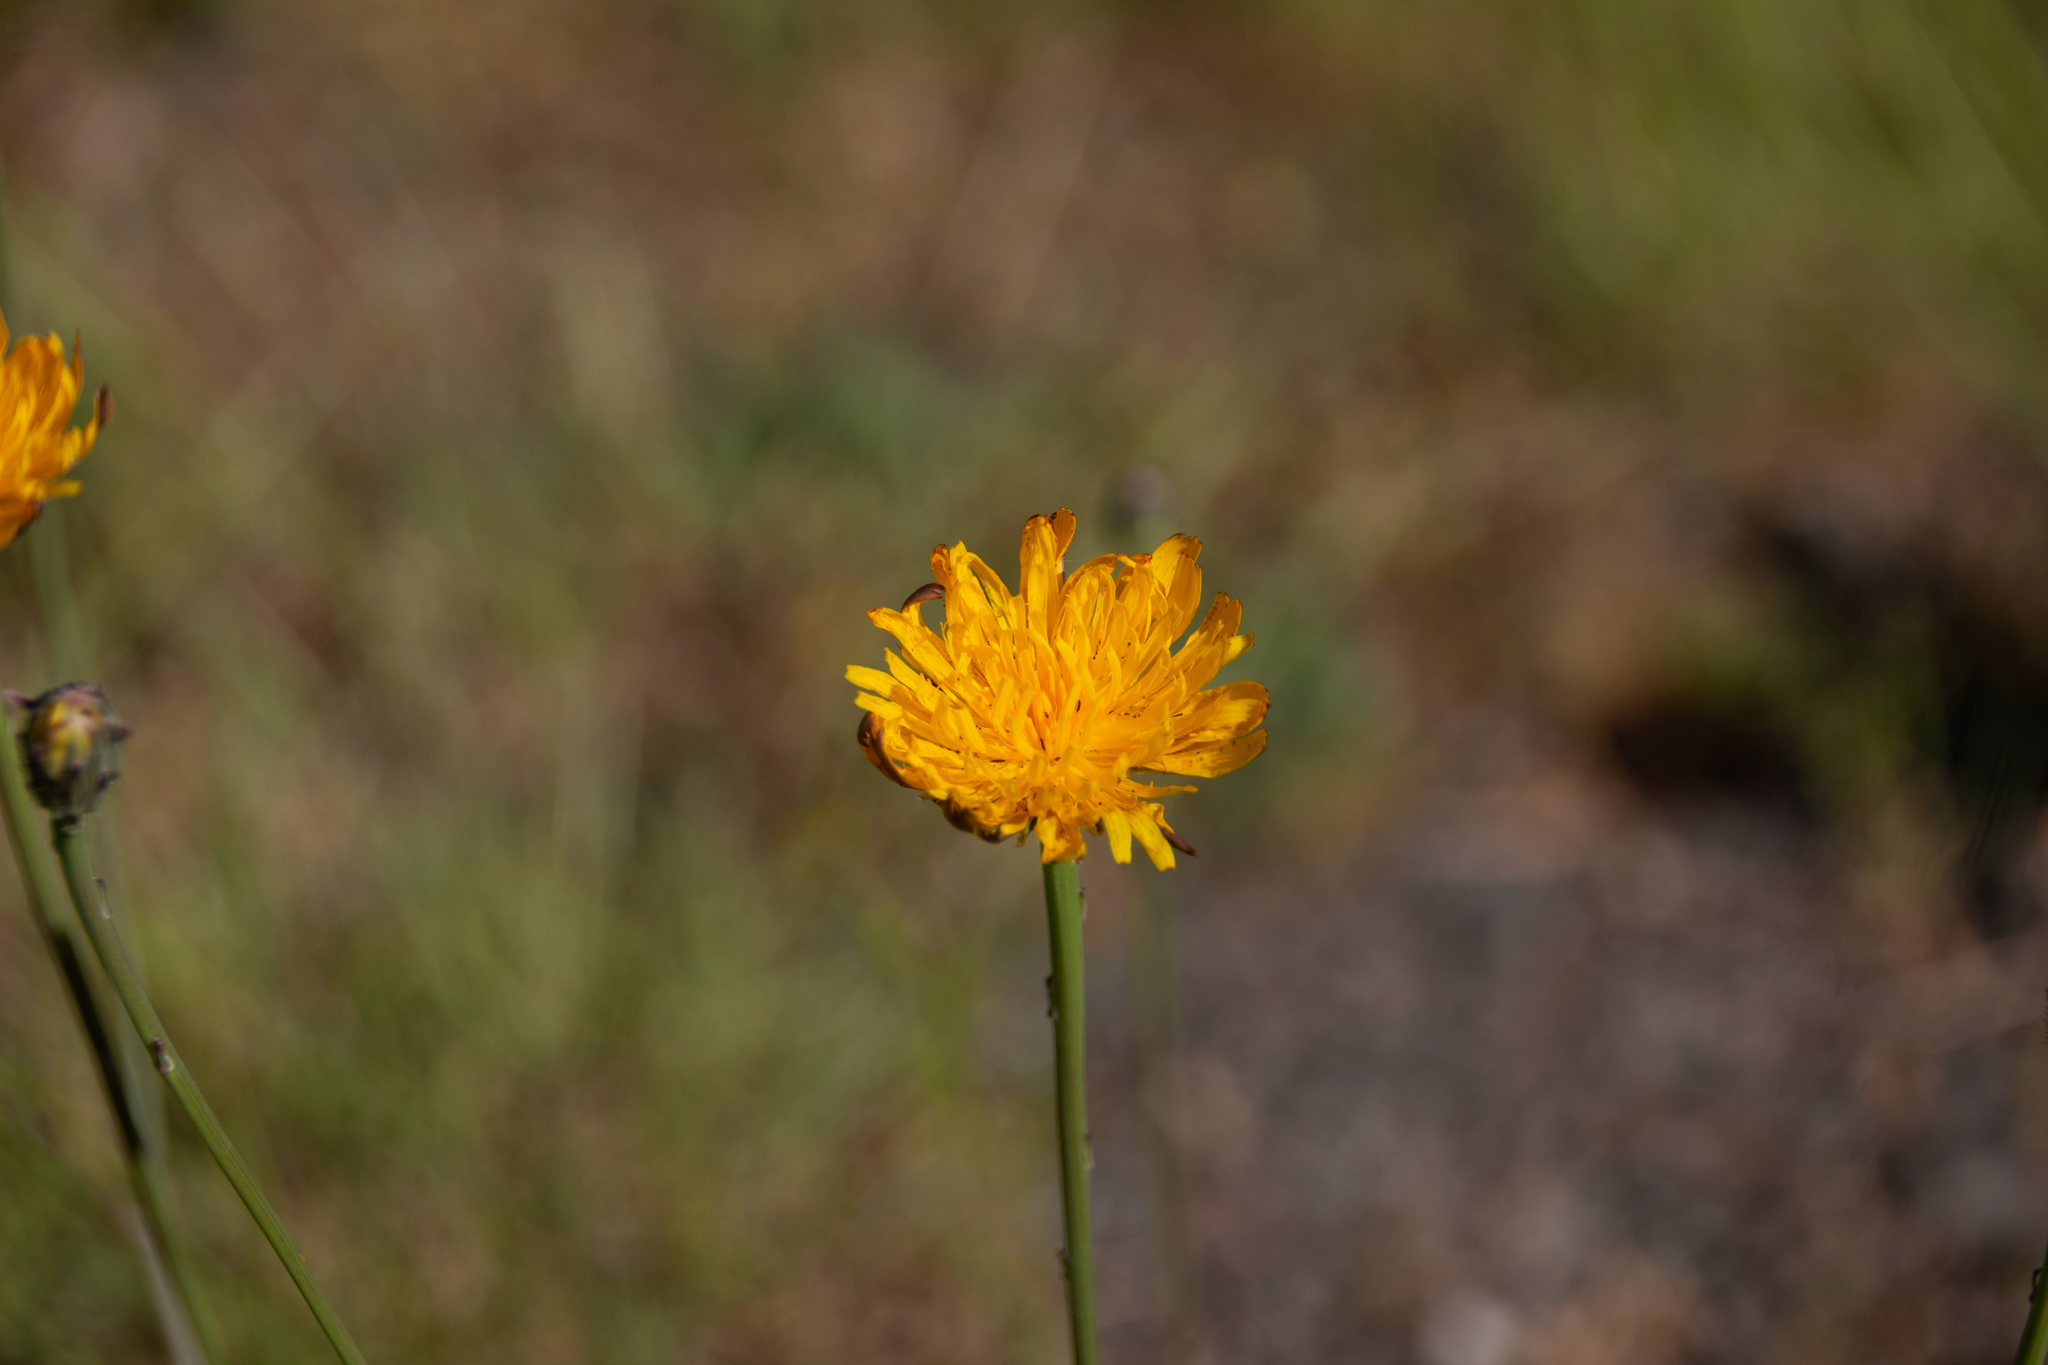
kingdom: Plantae
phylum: Tracheophyta
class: Magnoliopsida
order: Asterales
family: Asteraceae
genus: Hypochaeris
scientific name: Hypochaeris radicata
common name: Flatweed
